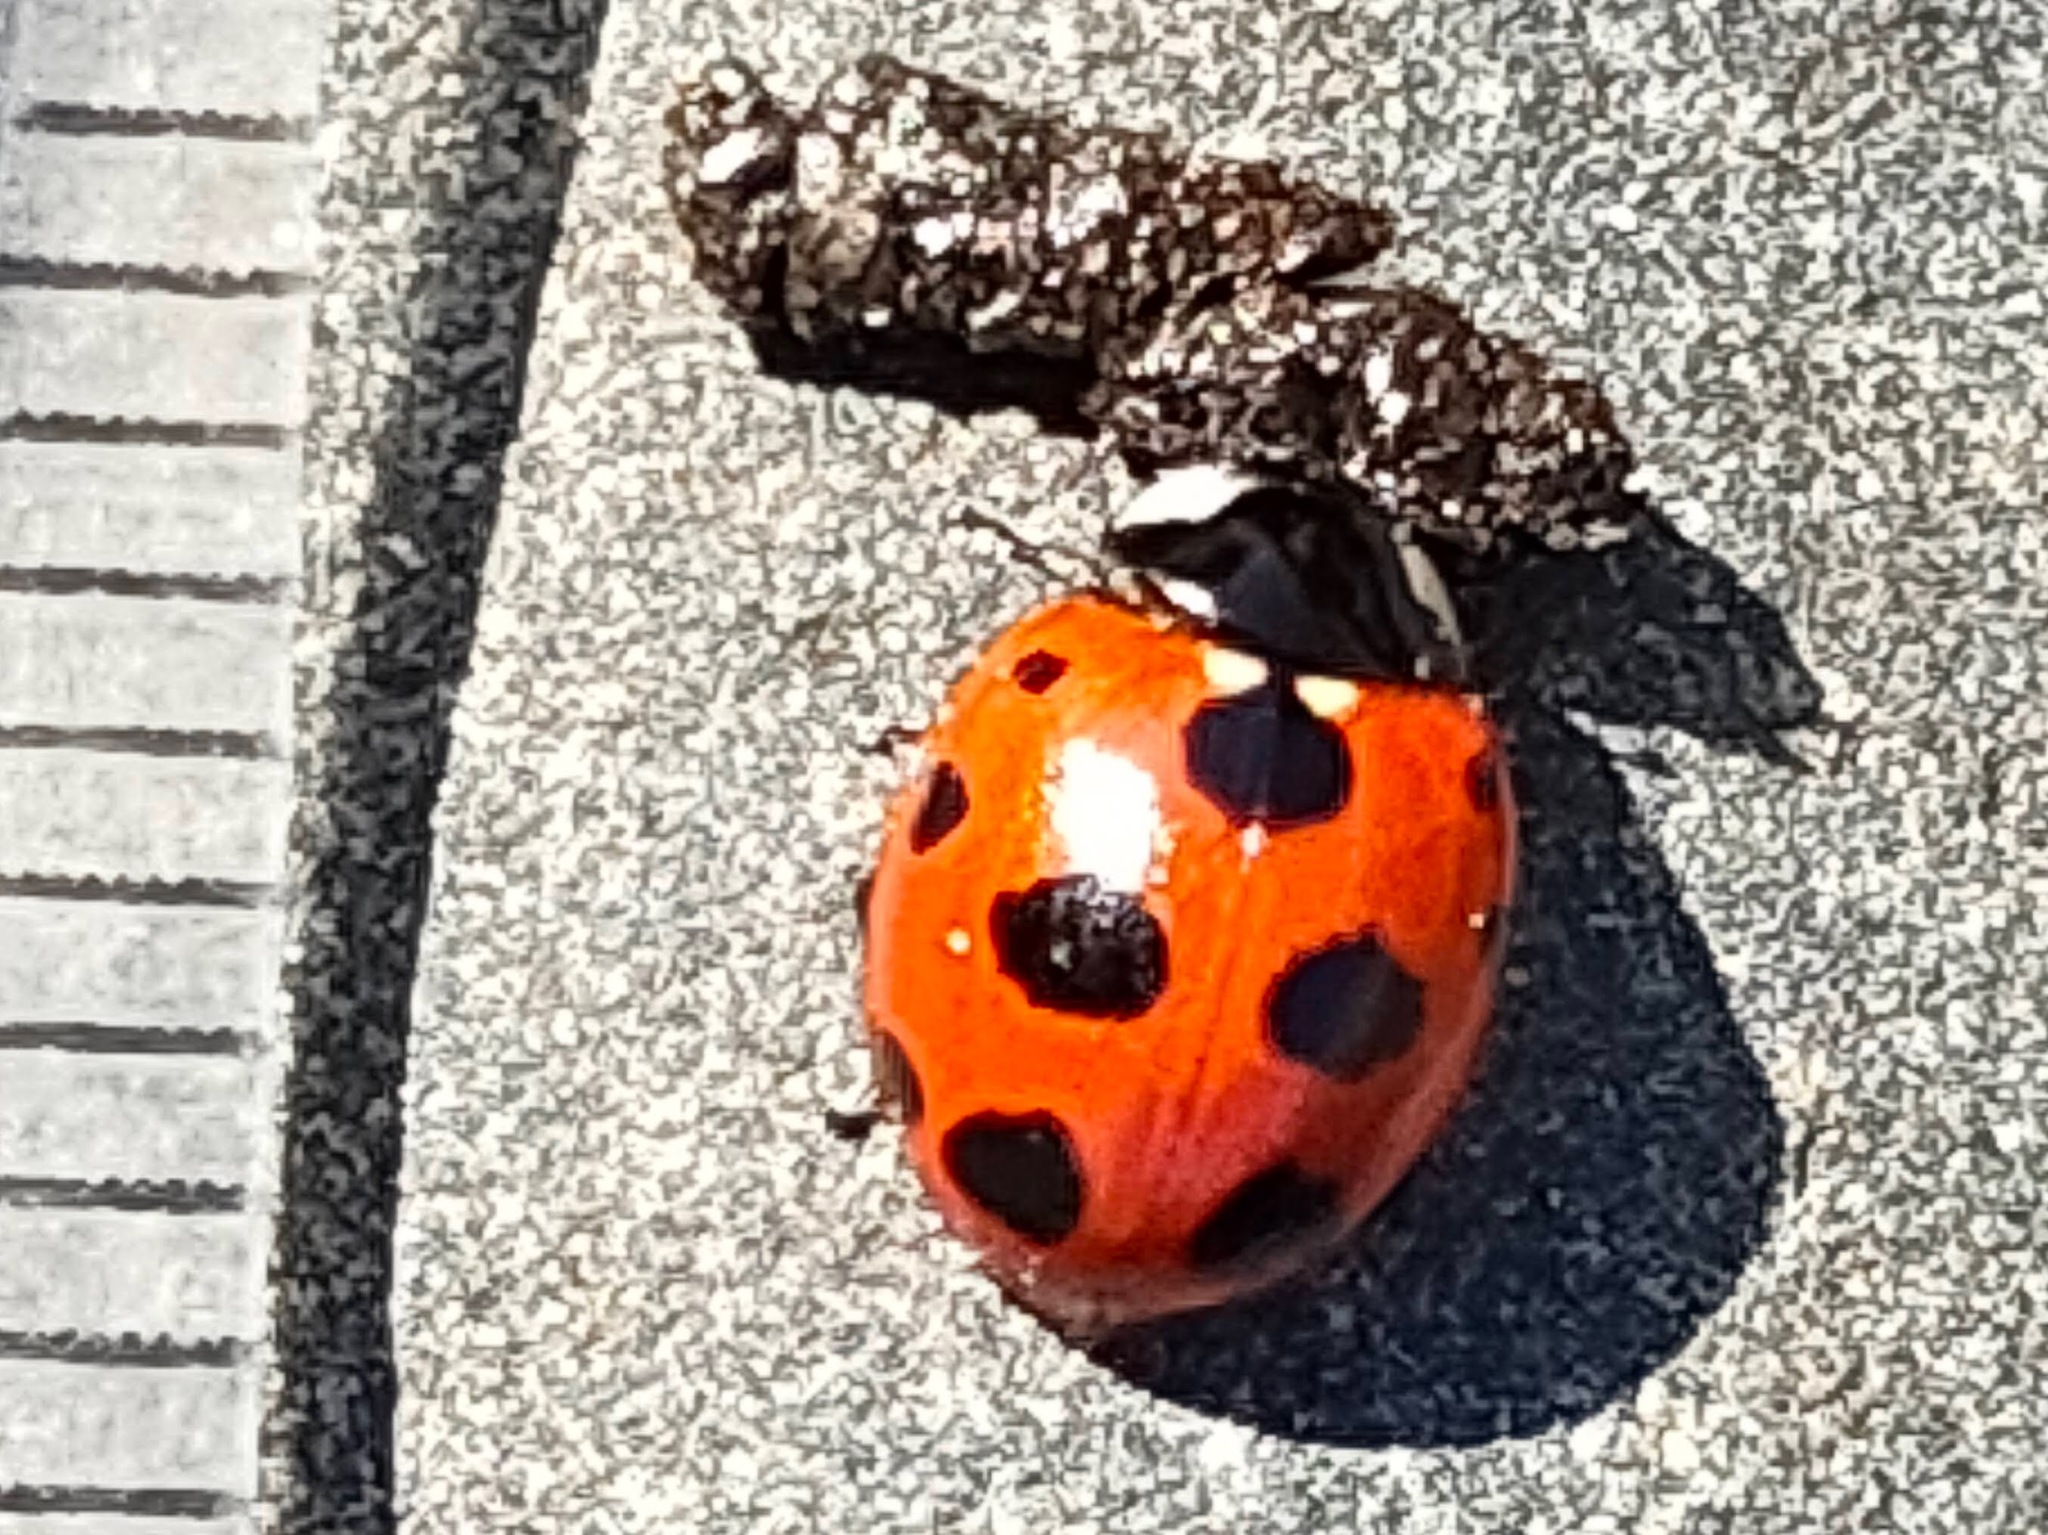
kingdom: Animalia
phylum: Arthropoda
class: Insecta
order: Coleoptera
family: Coccinellidae
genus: Coccinella
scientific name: Coccinella ainu
